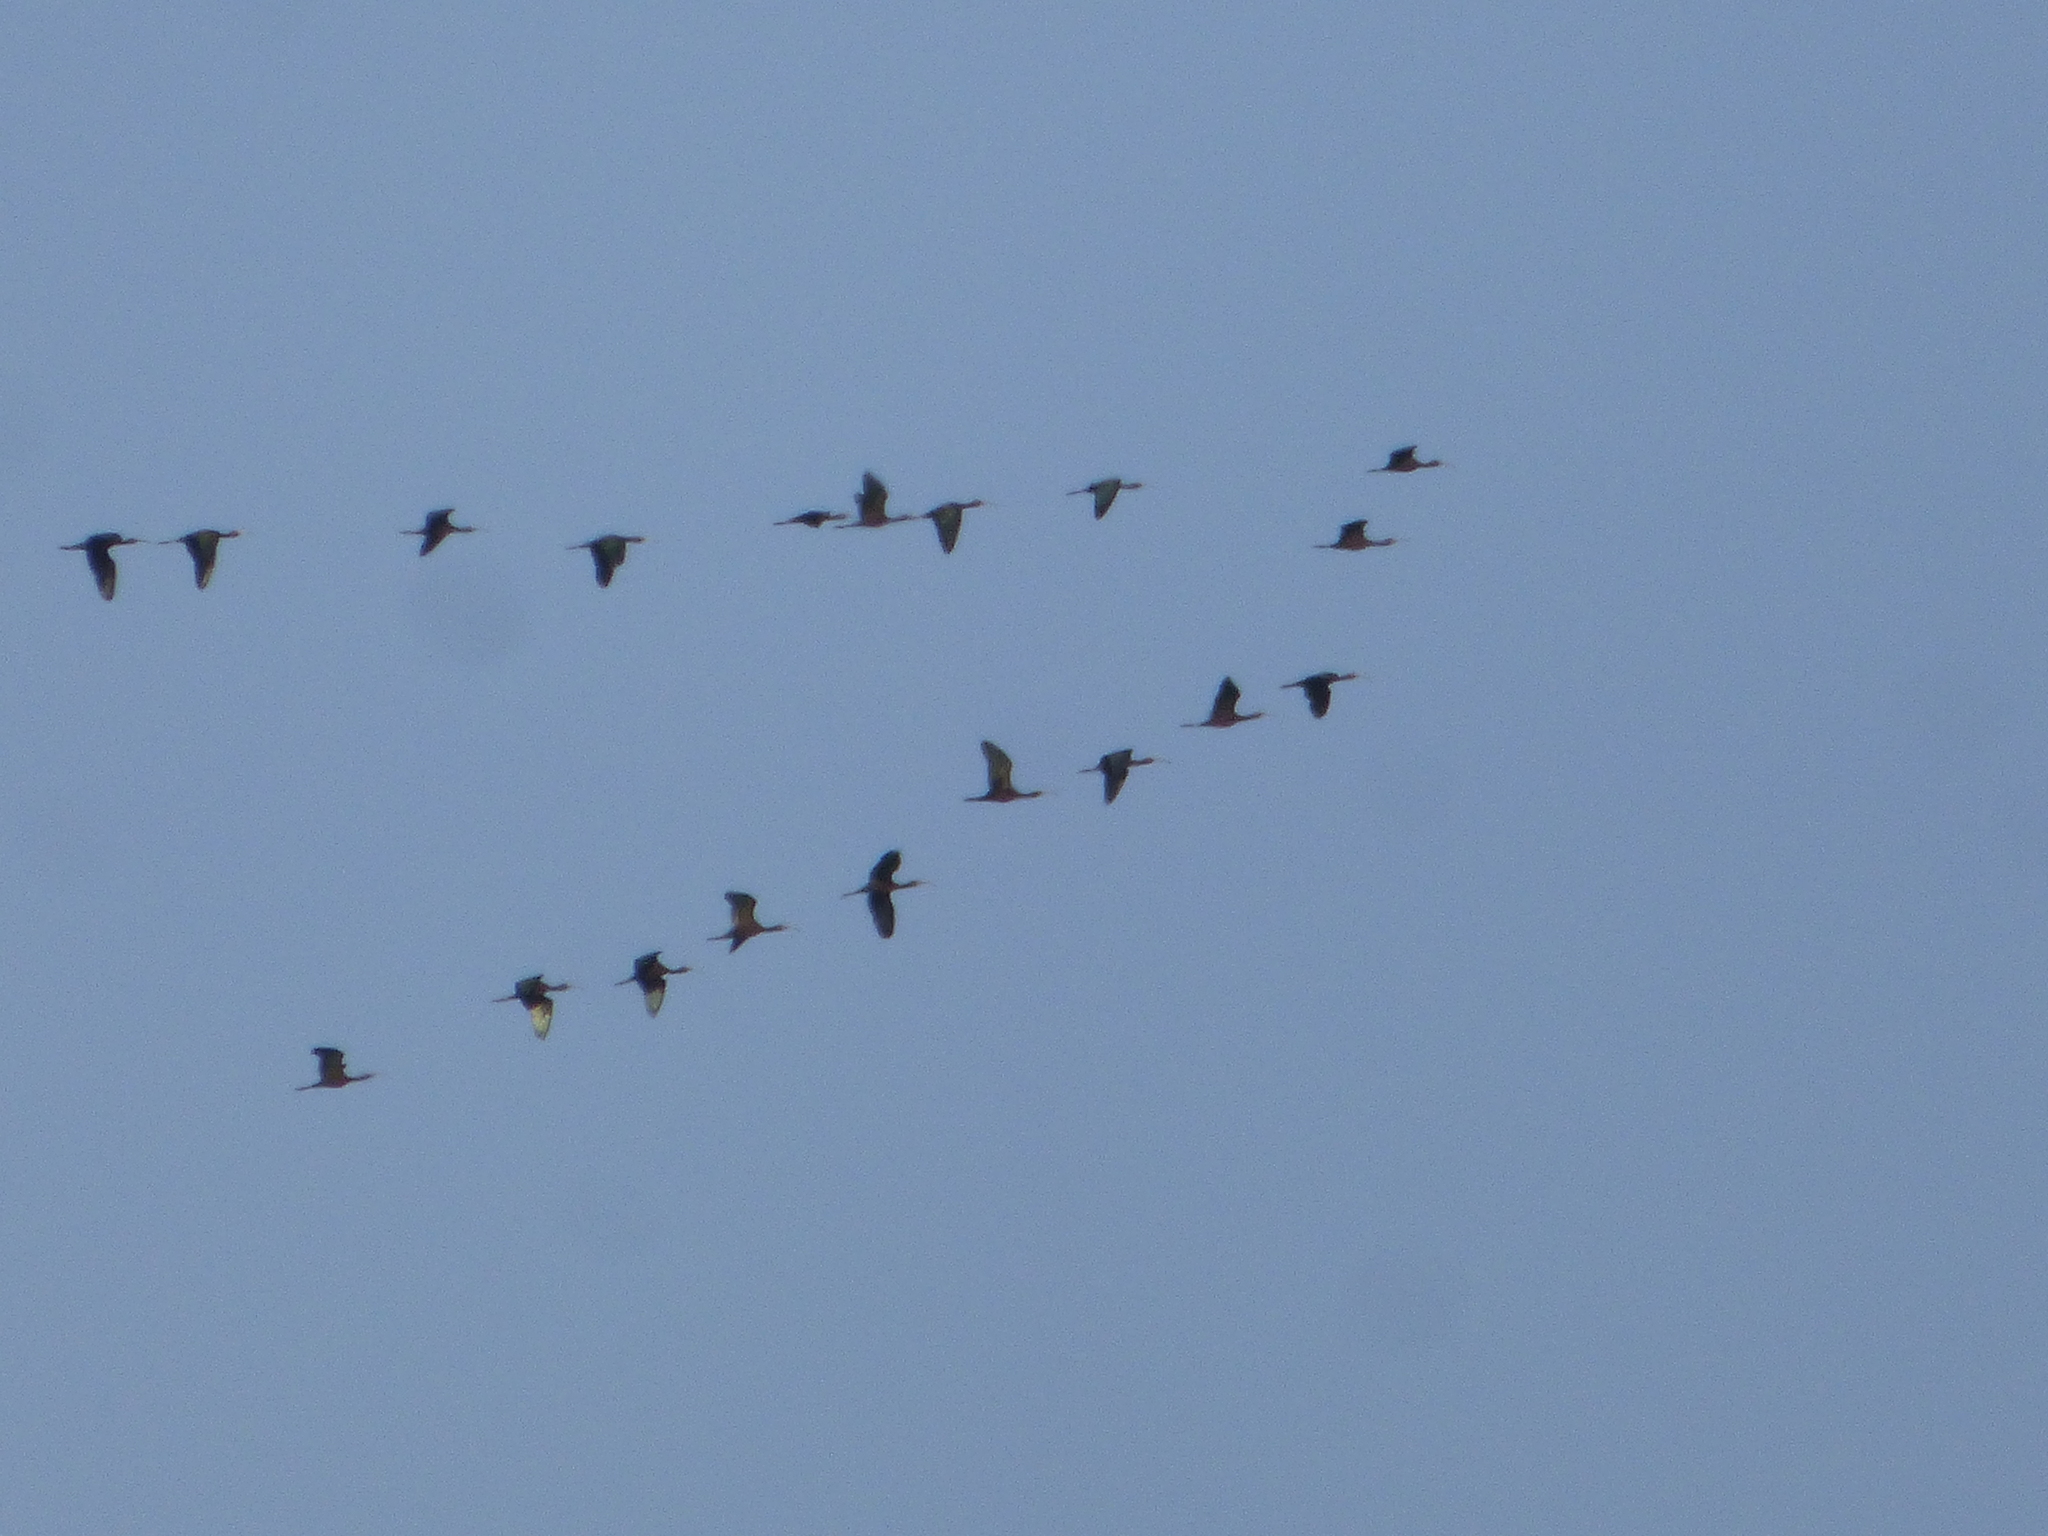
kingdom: Animalia
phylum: Chordata
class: Aves
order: Pelecaniformes
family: Threskiornithidae
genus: Plegadis
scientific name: Plegadis chihi
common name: White-faced ibis
